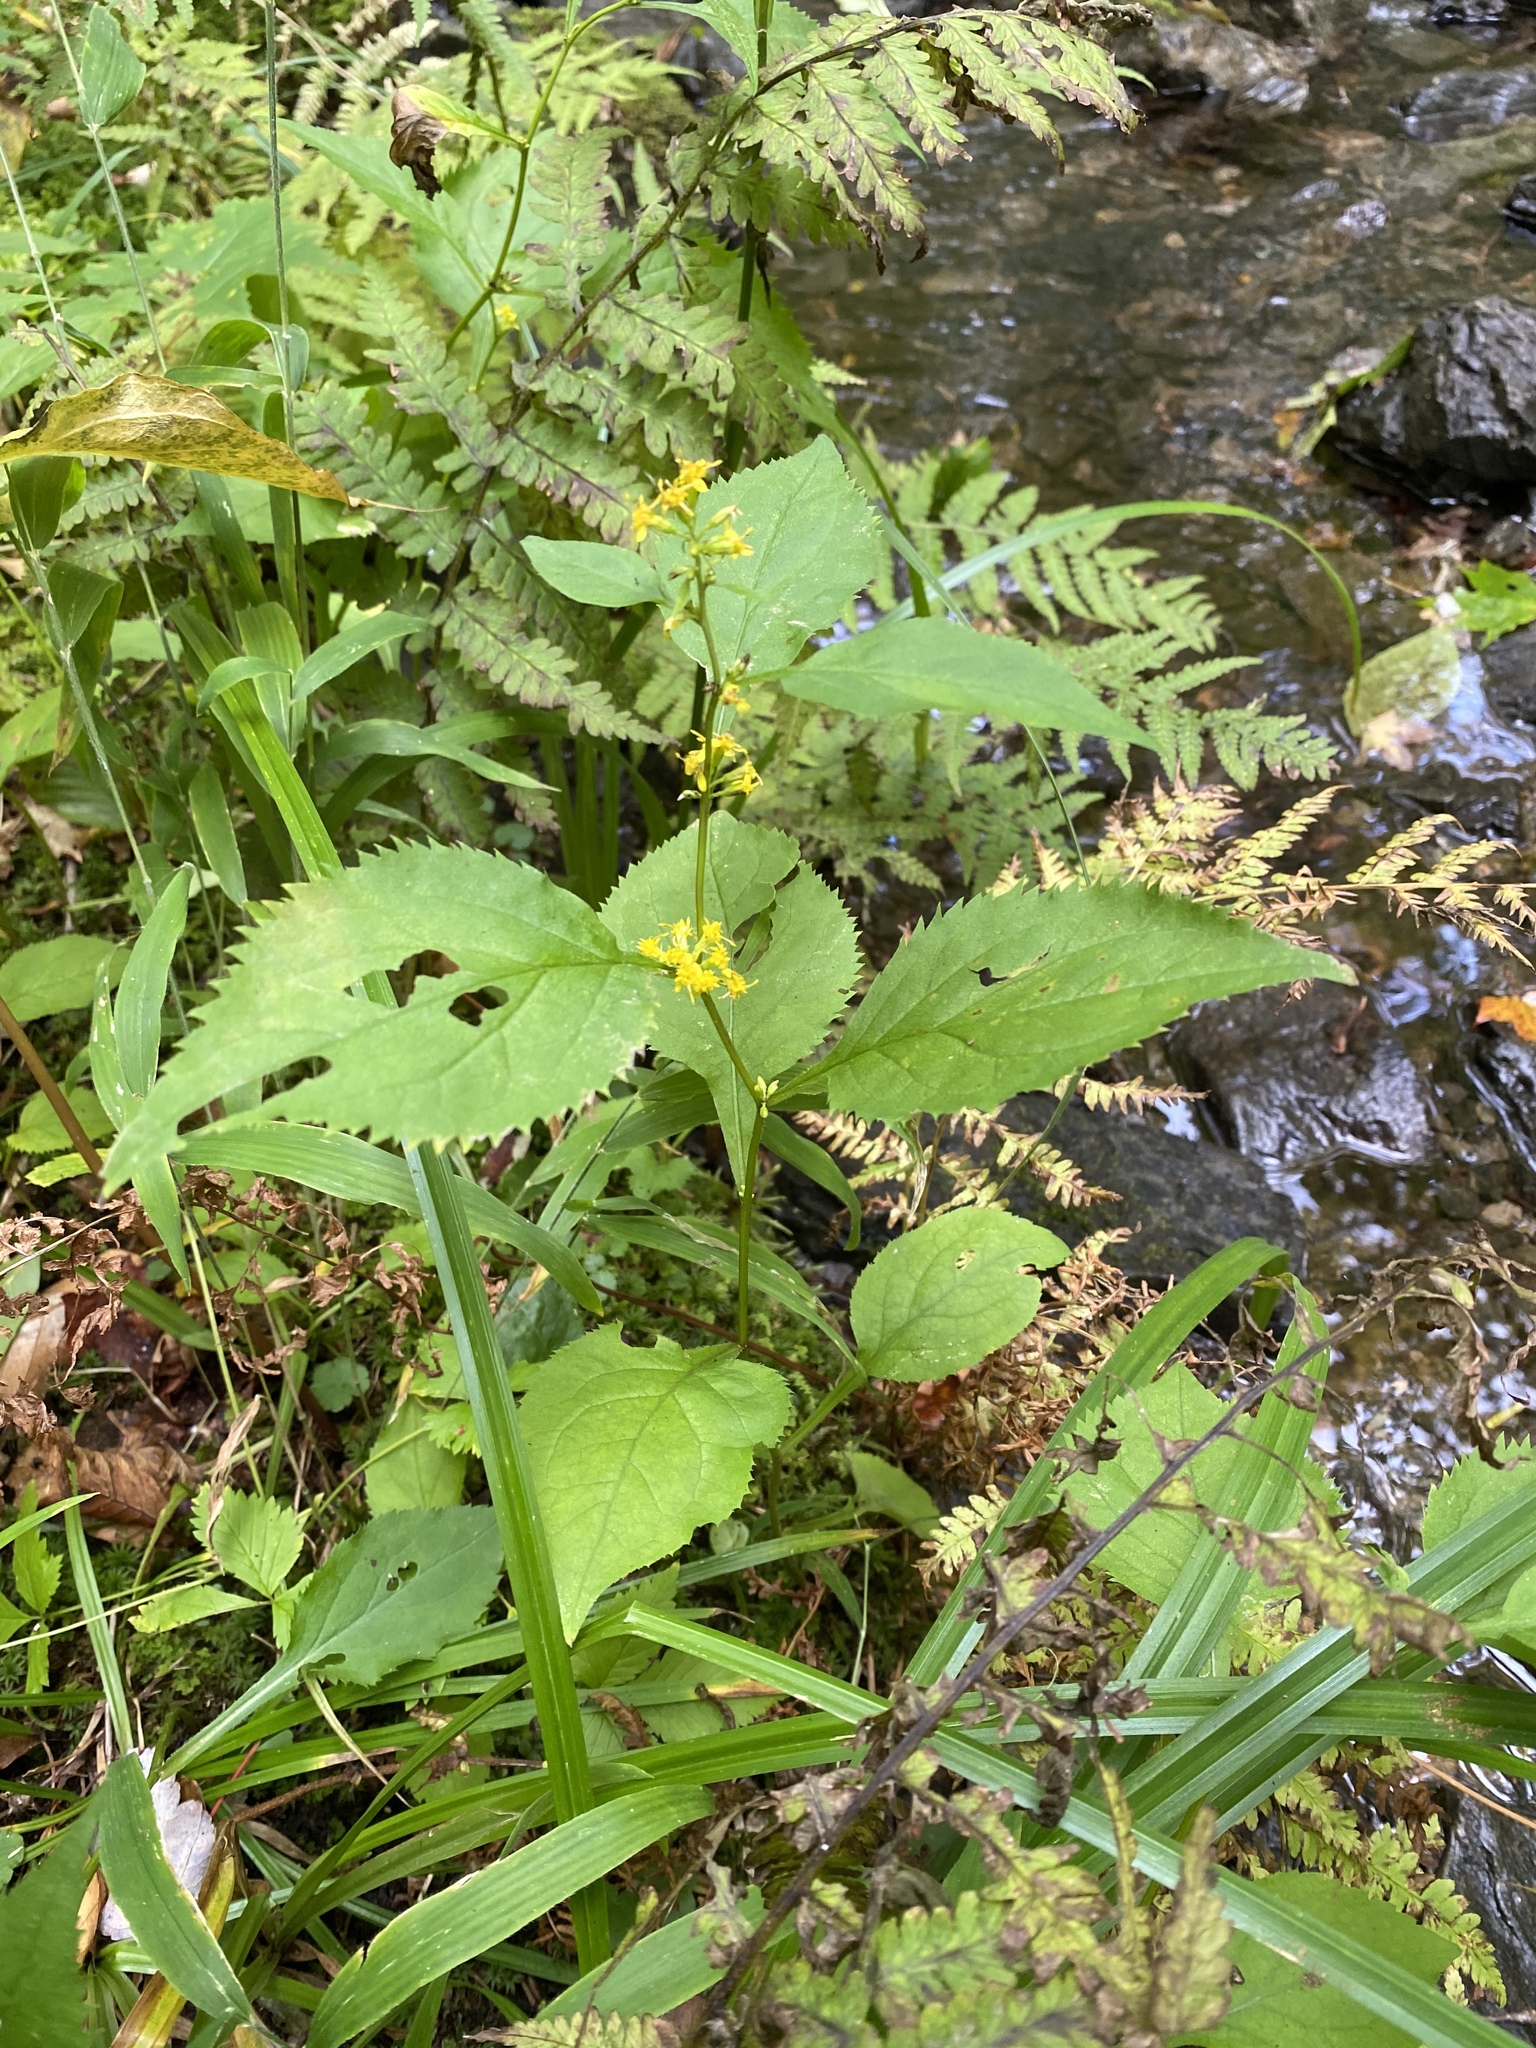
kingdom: Plantae
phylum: Tracheophyta
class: Magnoliopsida
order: Asterales
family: Asteraceae
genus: Solidago
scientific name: Solidago flexicaulis
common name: Zig-zag goldenrod
